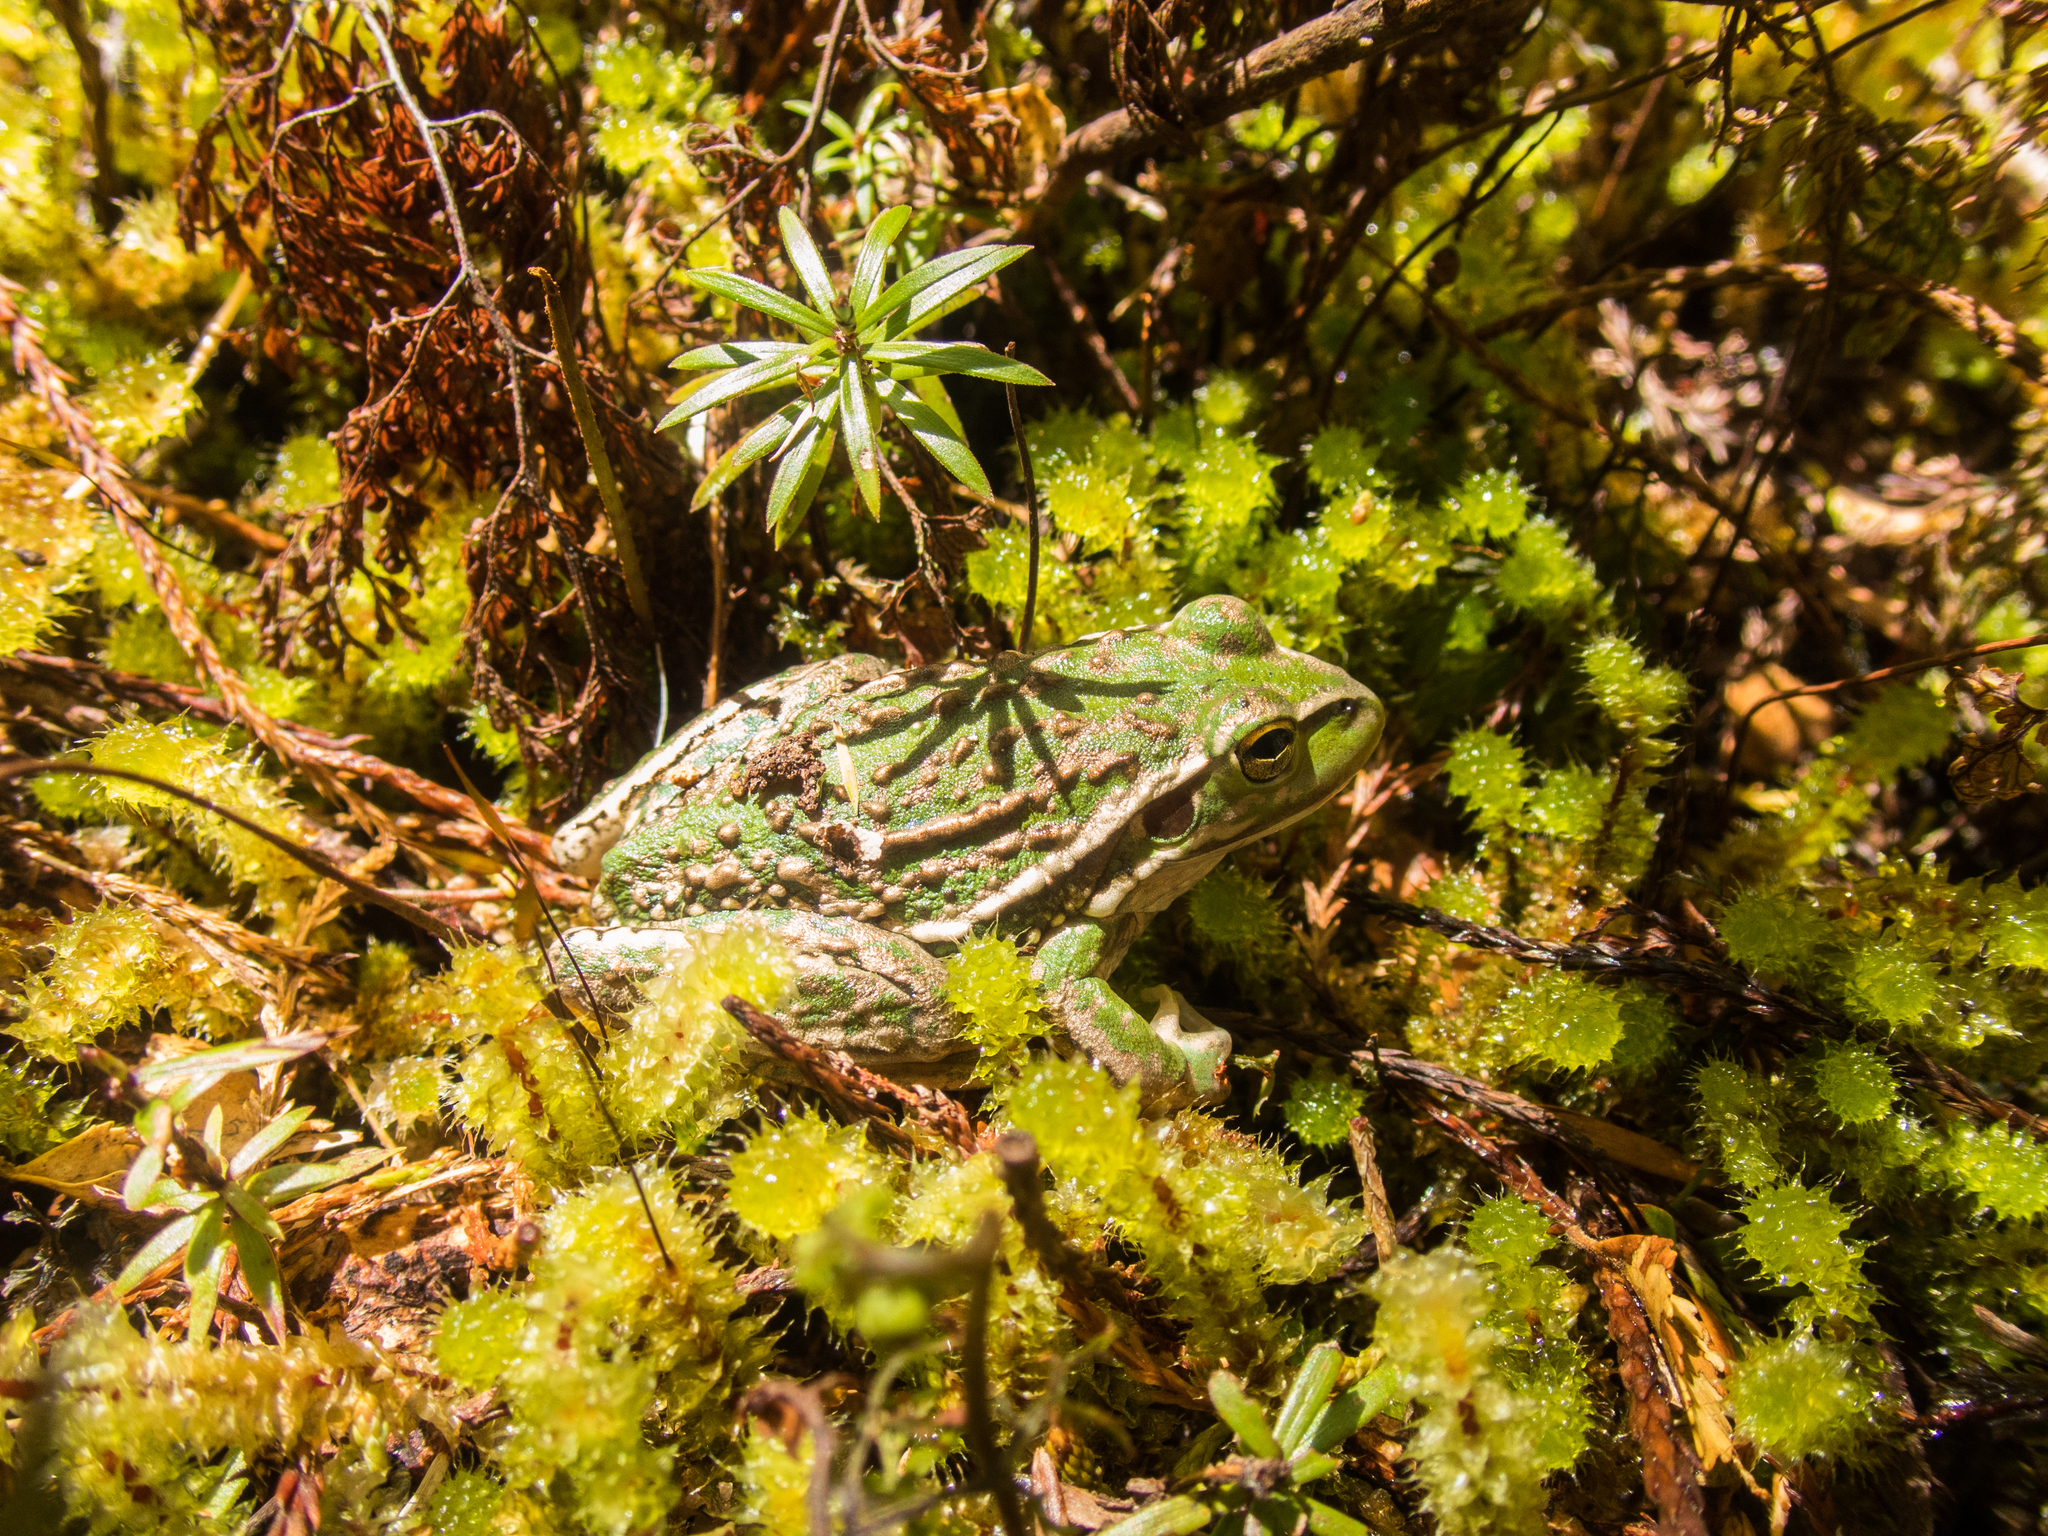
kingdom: Animalia
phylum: Chordata
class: Amphibia
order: Anura
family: Pelodryadidae
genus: Ranoidea
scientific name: Ranoidea raniformis
